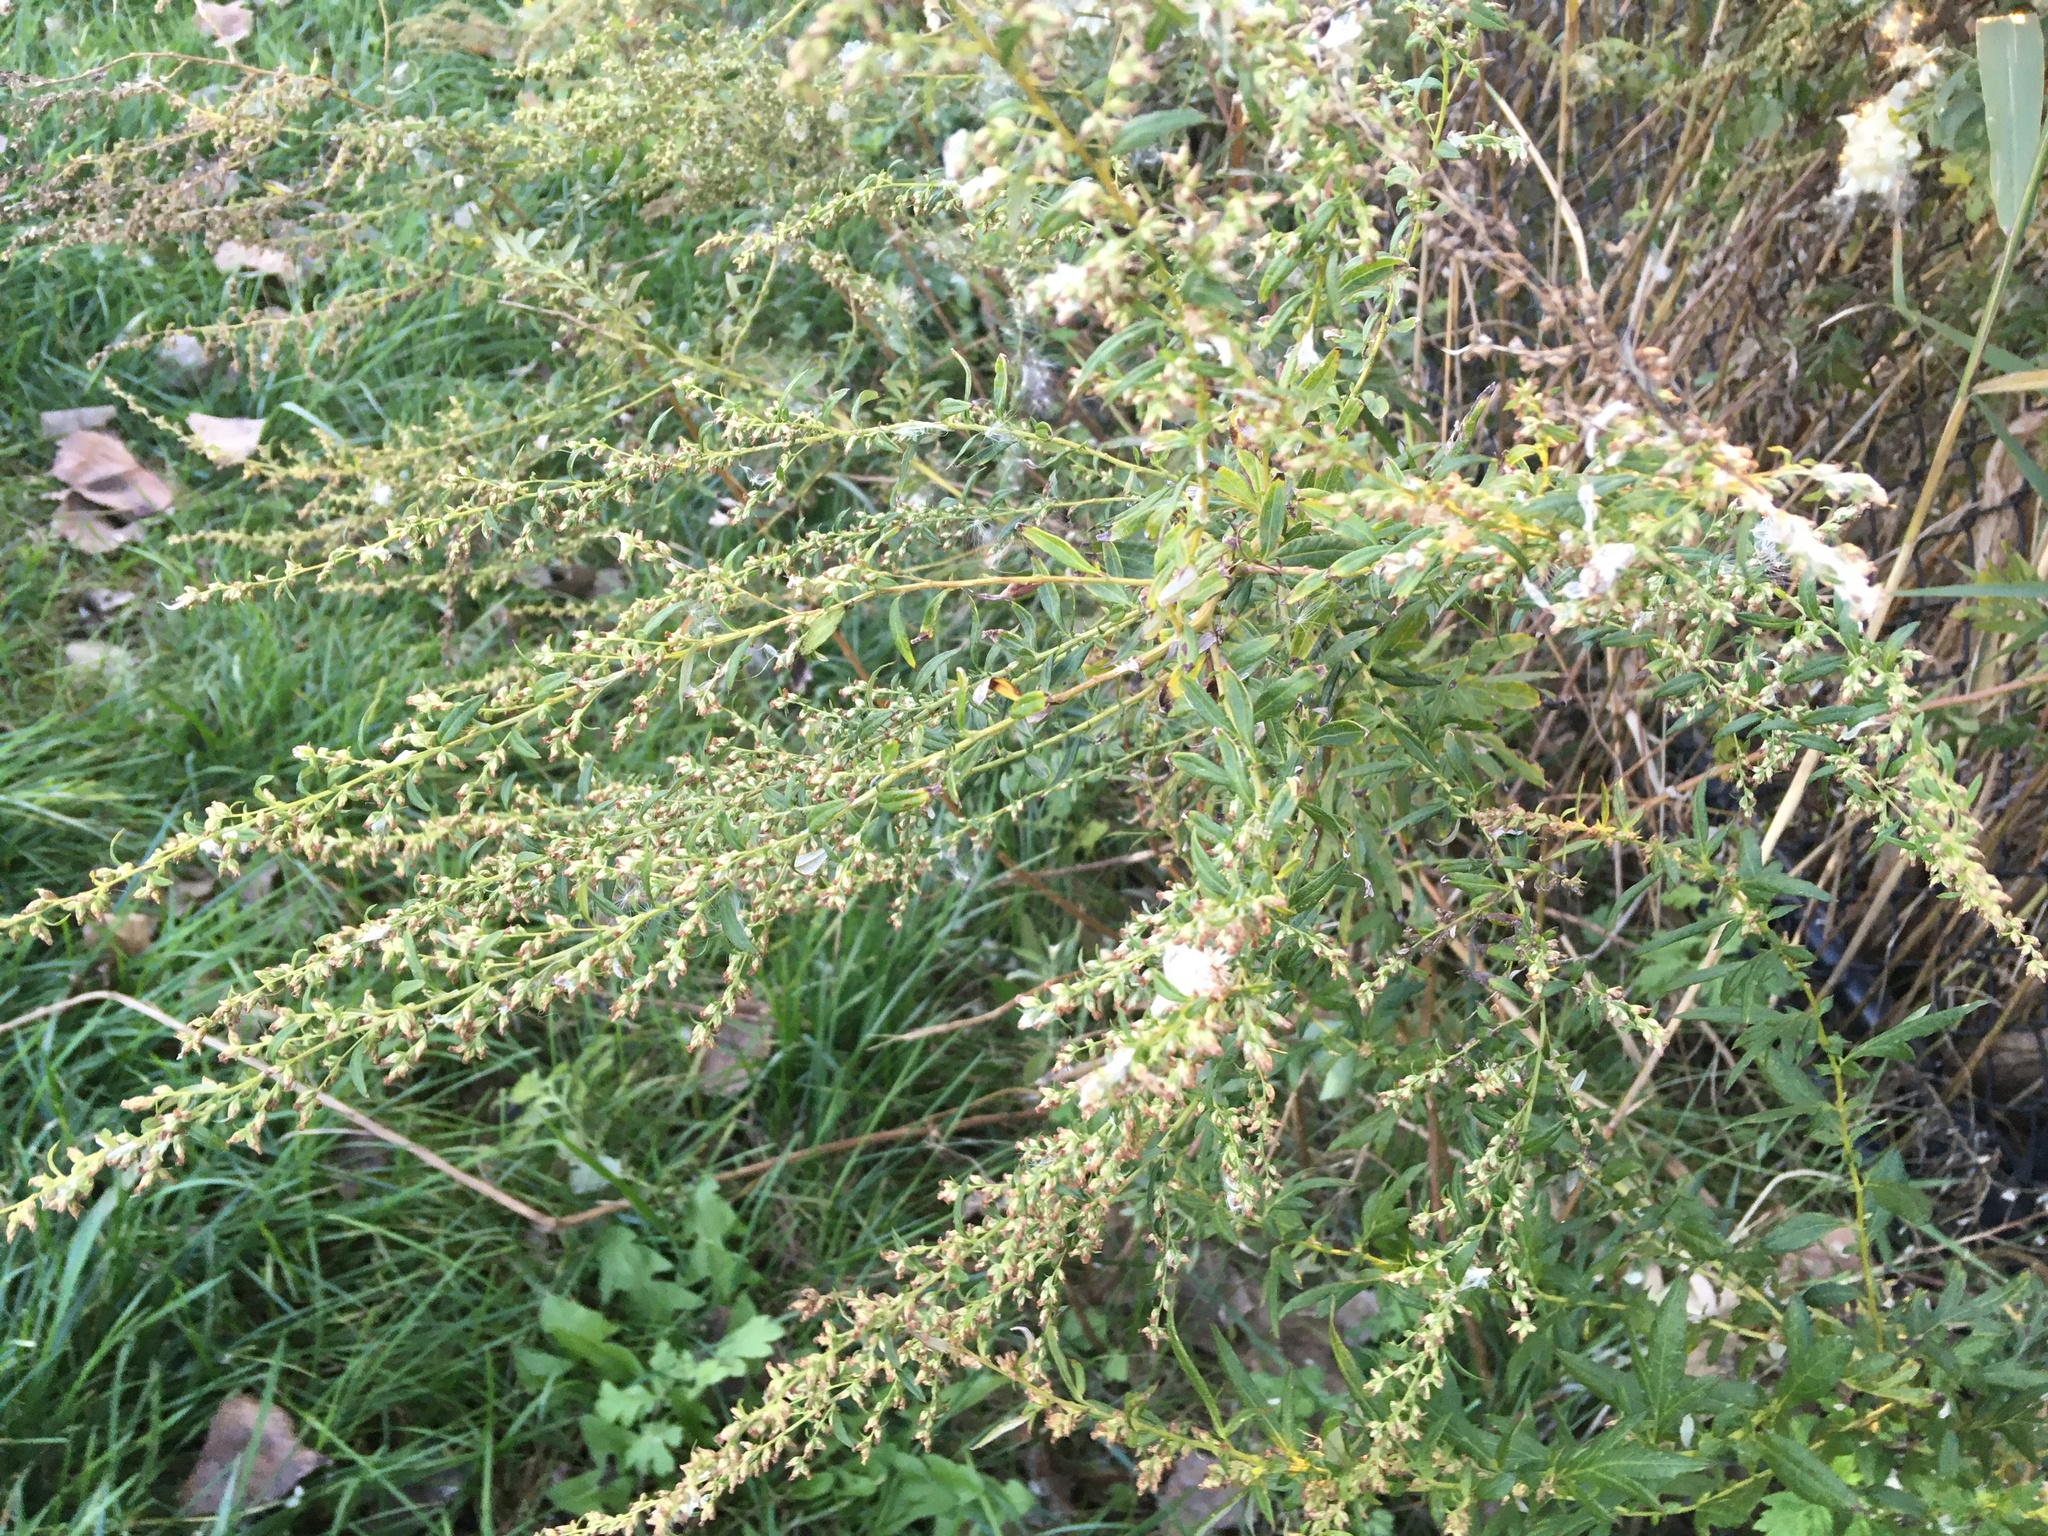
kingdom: Plantae
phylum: Tracheophyta
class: Magnoliopsida
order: Asterales
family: Asteraceae
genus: Artemisia
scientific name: Artemisia vulgaris
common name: Mugwort
